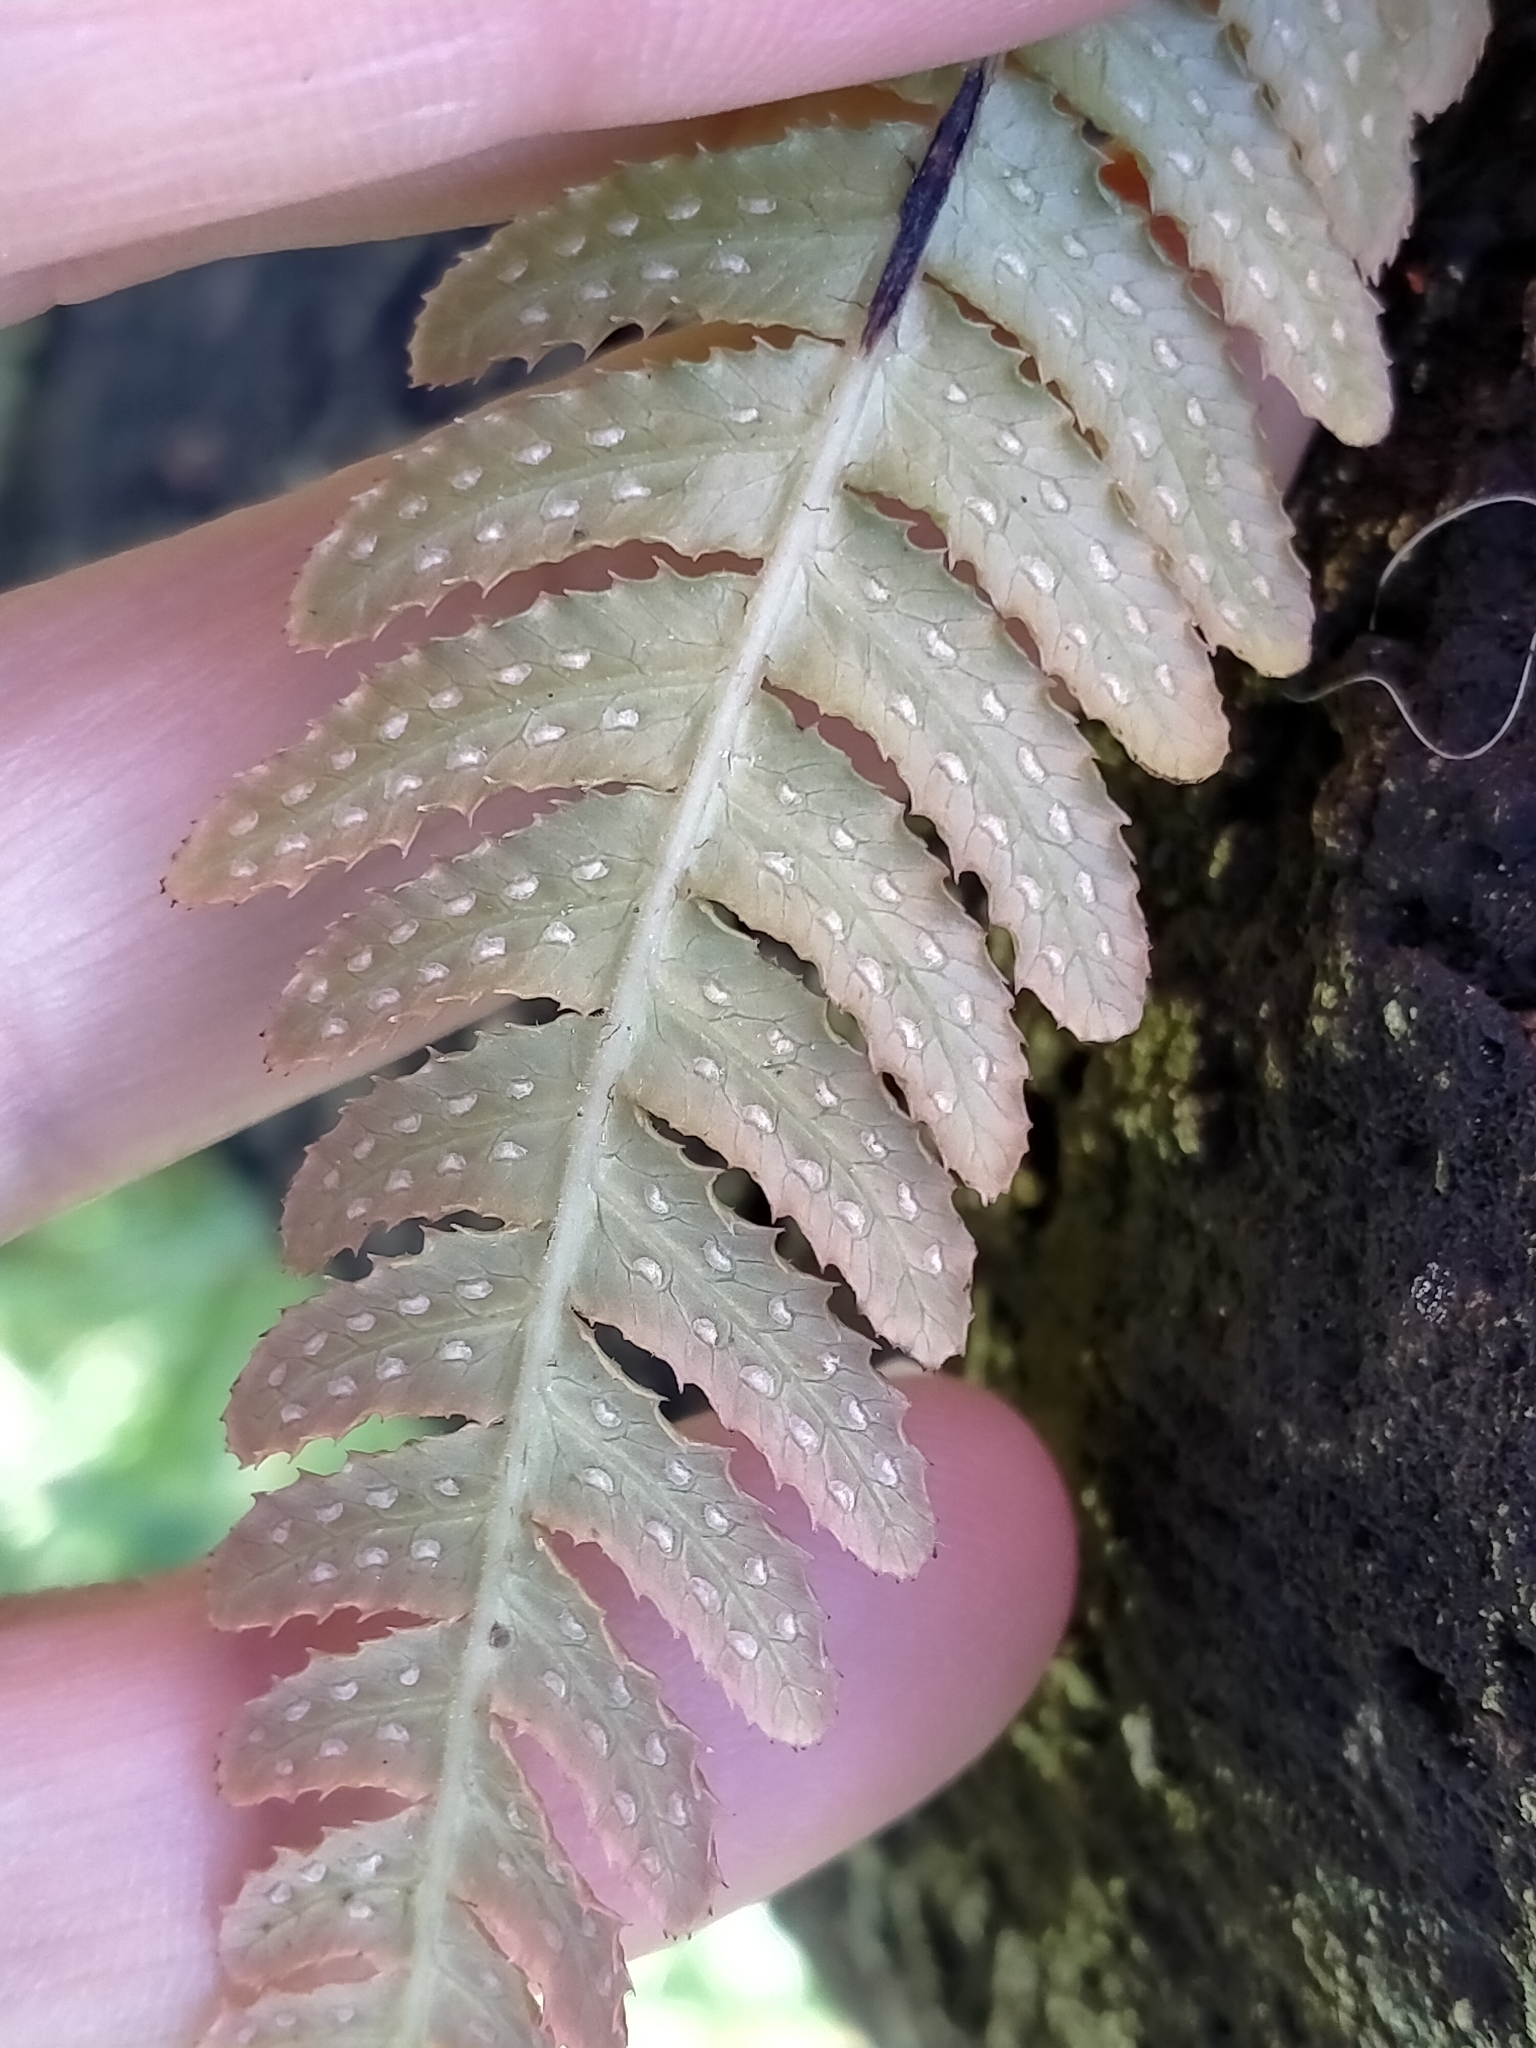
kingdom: Plantae
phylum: Tracheophyta
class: Polypodiopsida
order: Polypodiales
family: Blechnaceae
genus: Doodia
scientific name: Doodia australis
